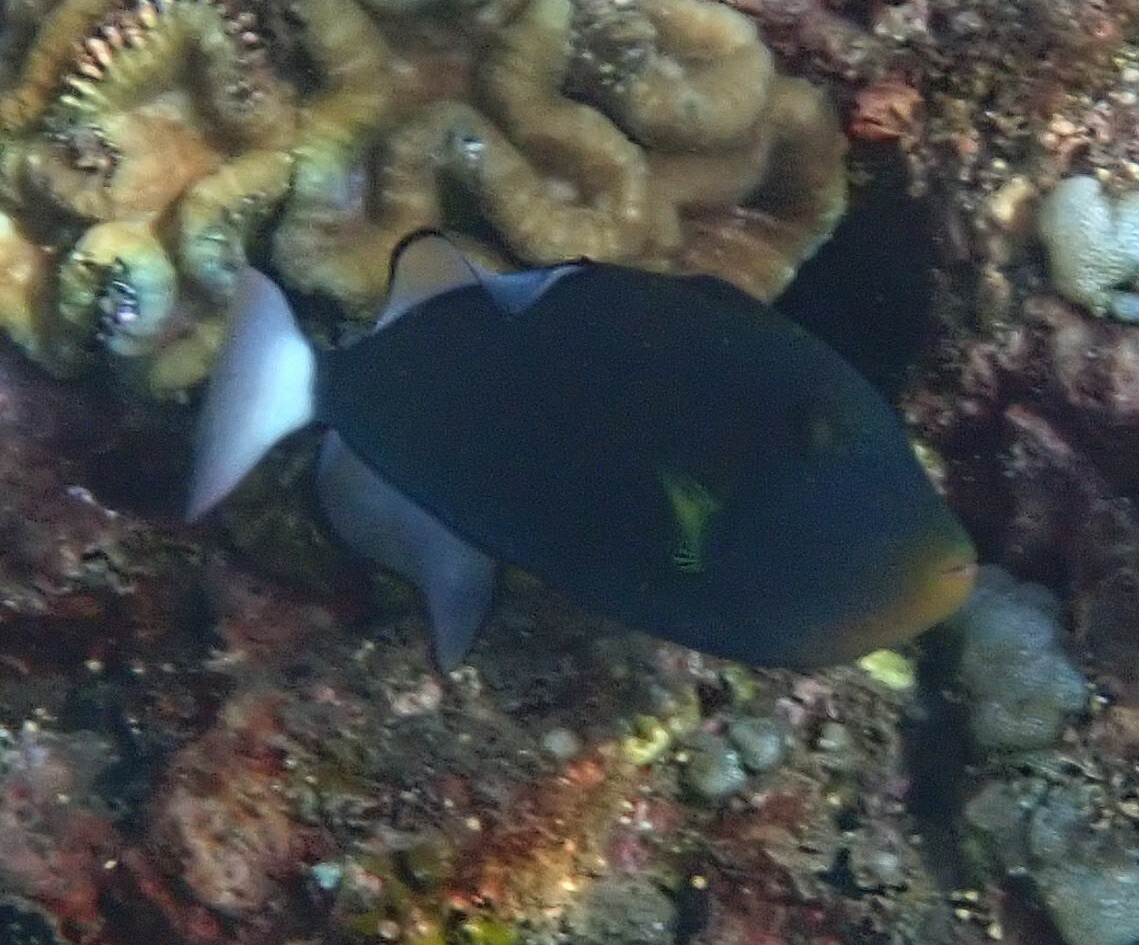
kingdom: Animalia
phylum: Chordata
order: Tetraodontiformes
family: Balistidae
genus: Melichthys
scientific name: Melichthys vidua
